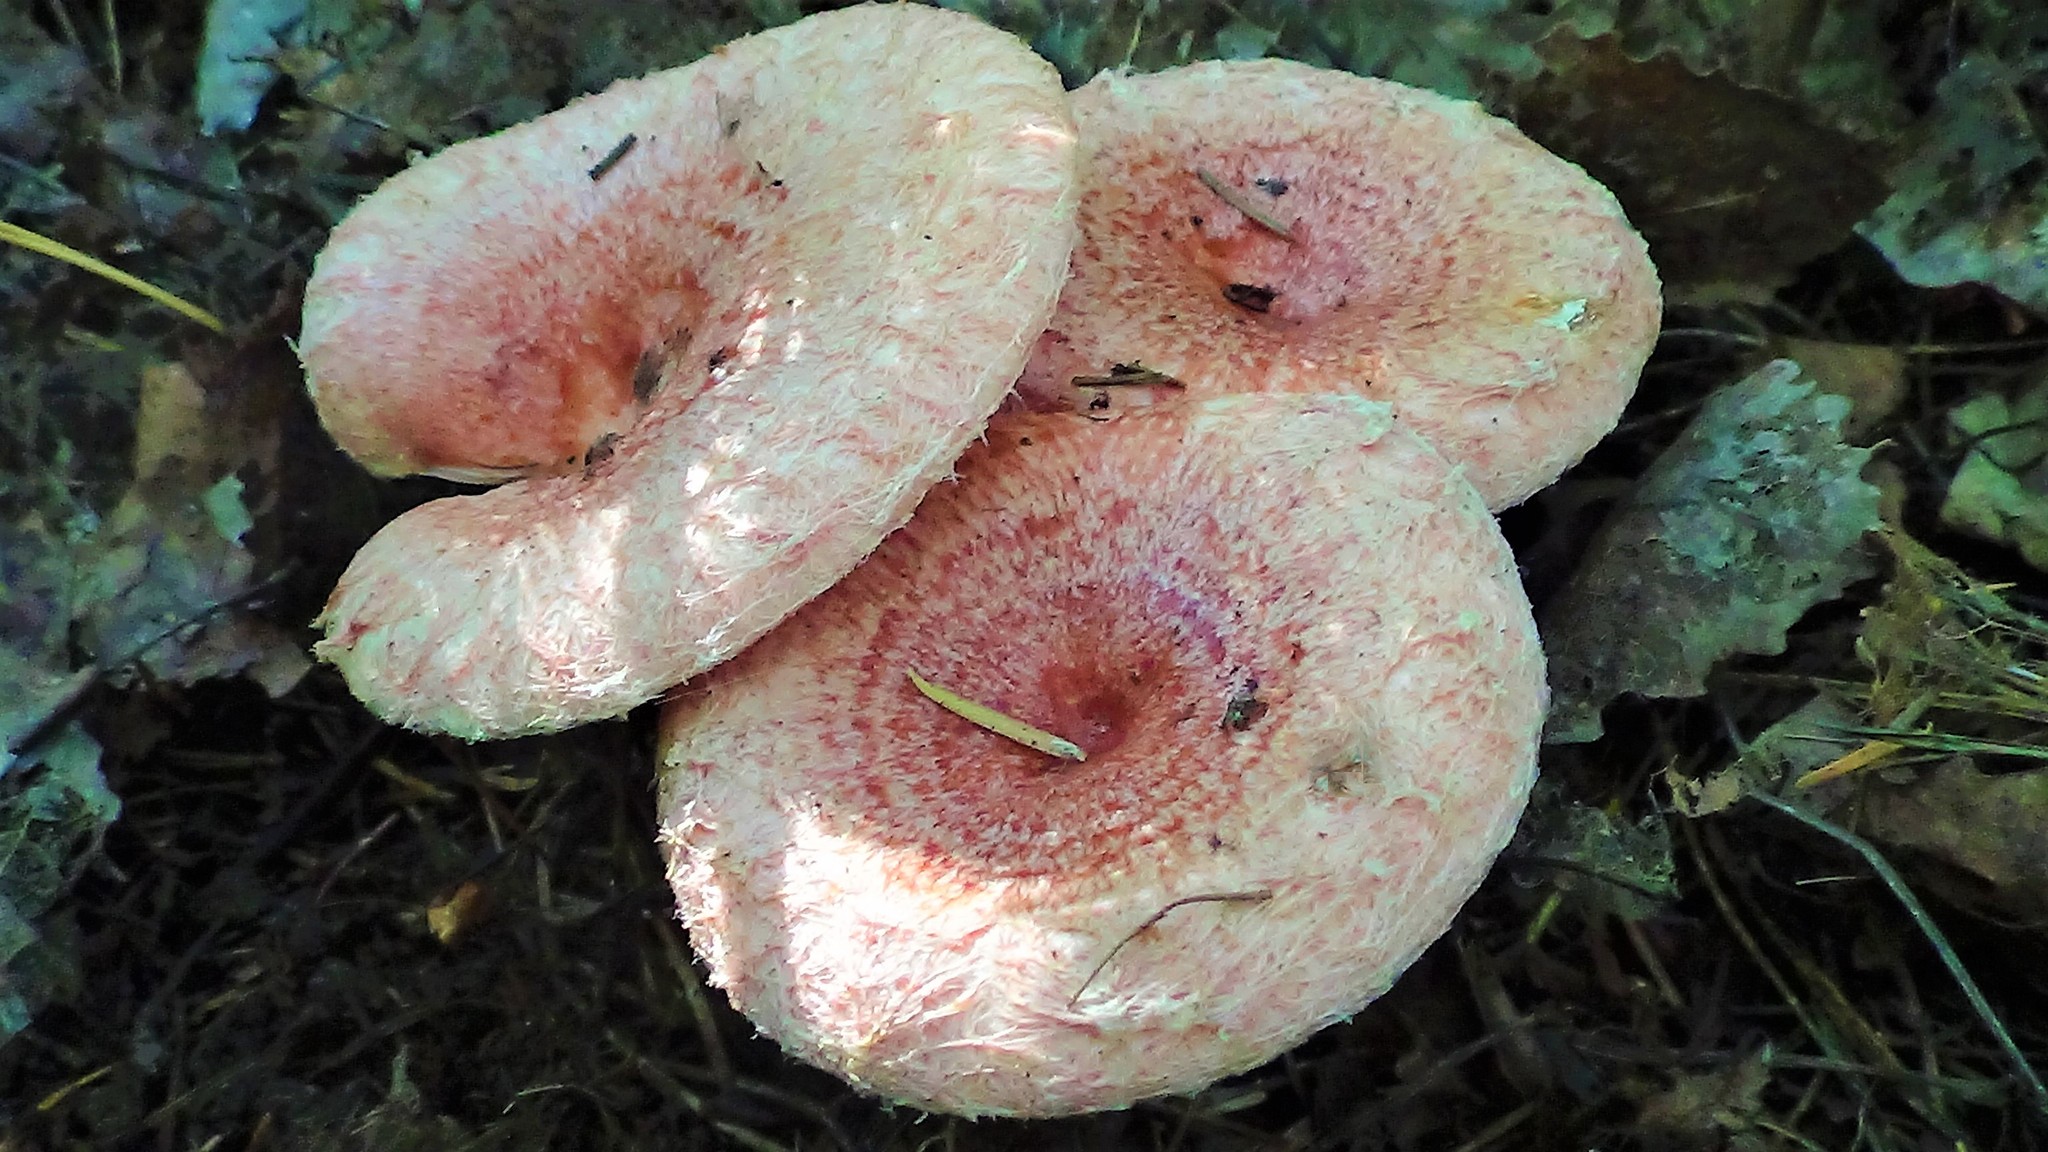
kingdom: Fungi
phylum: Basidiomycota
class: Agaricomycetes
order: Russulales
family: Russulaceae
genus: Lactarius
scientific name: Lactarius torminosus
